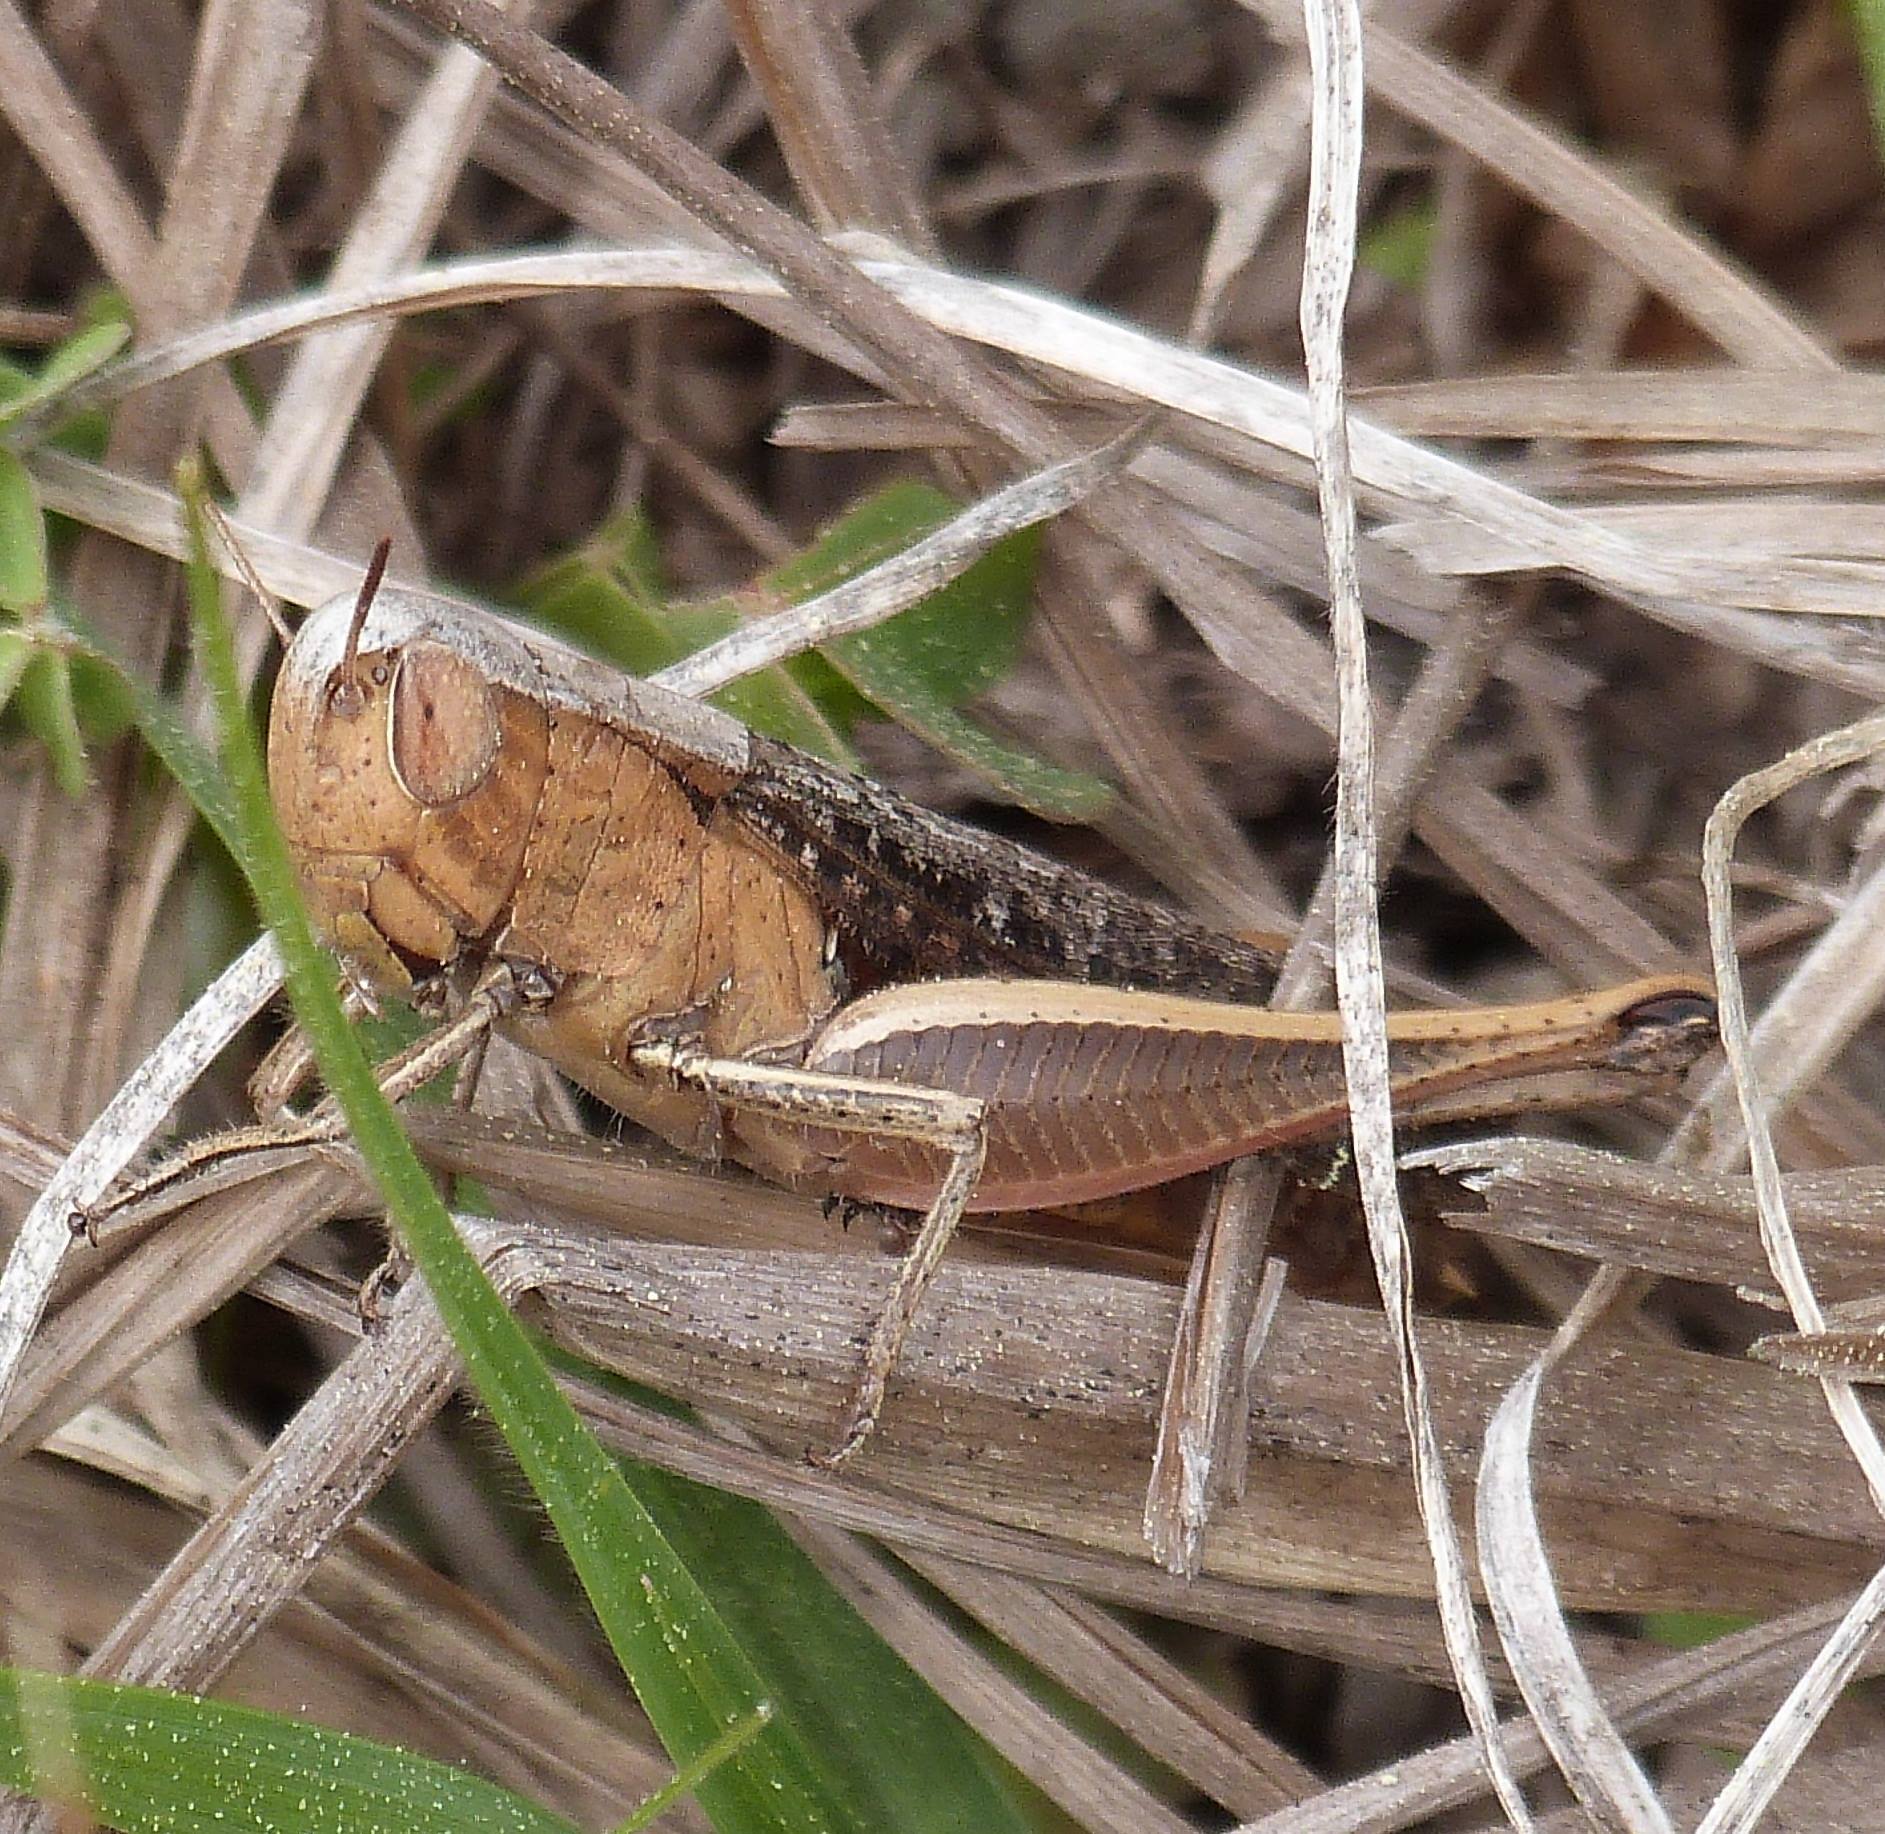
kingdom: Animalia
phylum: Arthropoda
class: Insecta
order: Orthoptera
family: Acrididae
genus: Amblytropidia
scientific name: Amblytropidia mysteca
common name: Brown winter grasshopper
